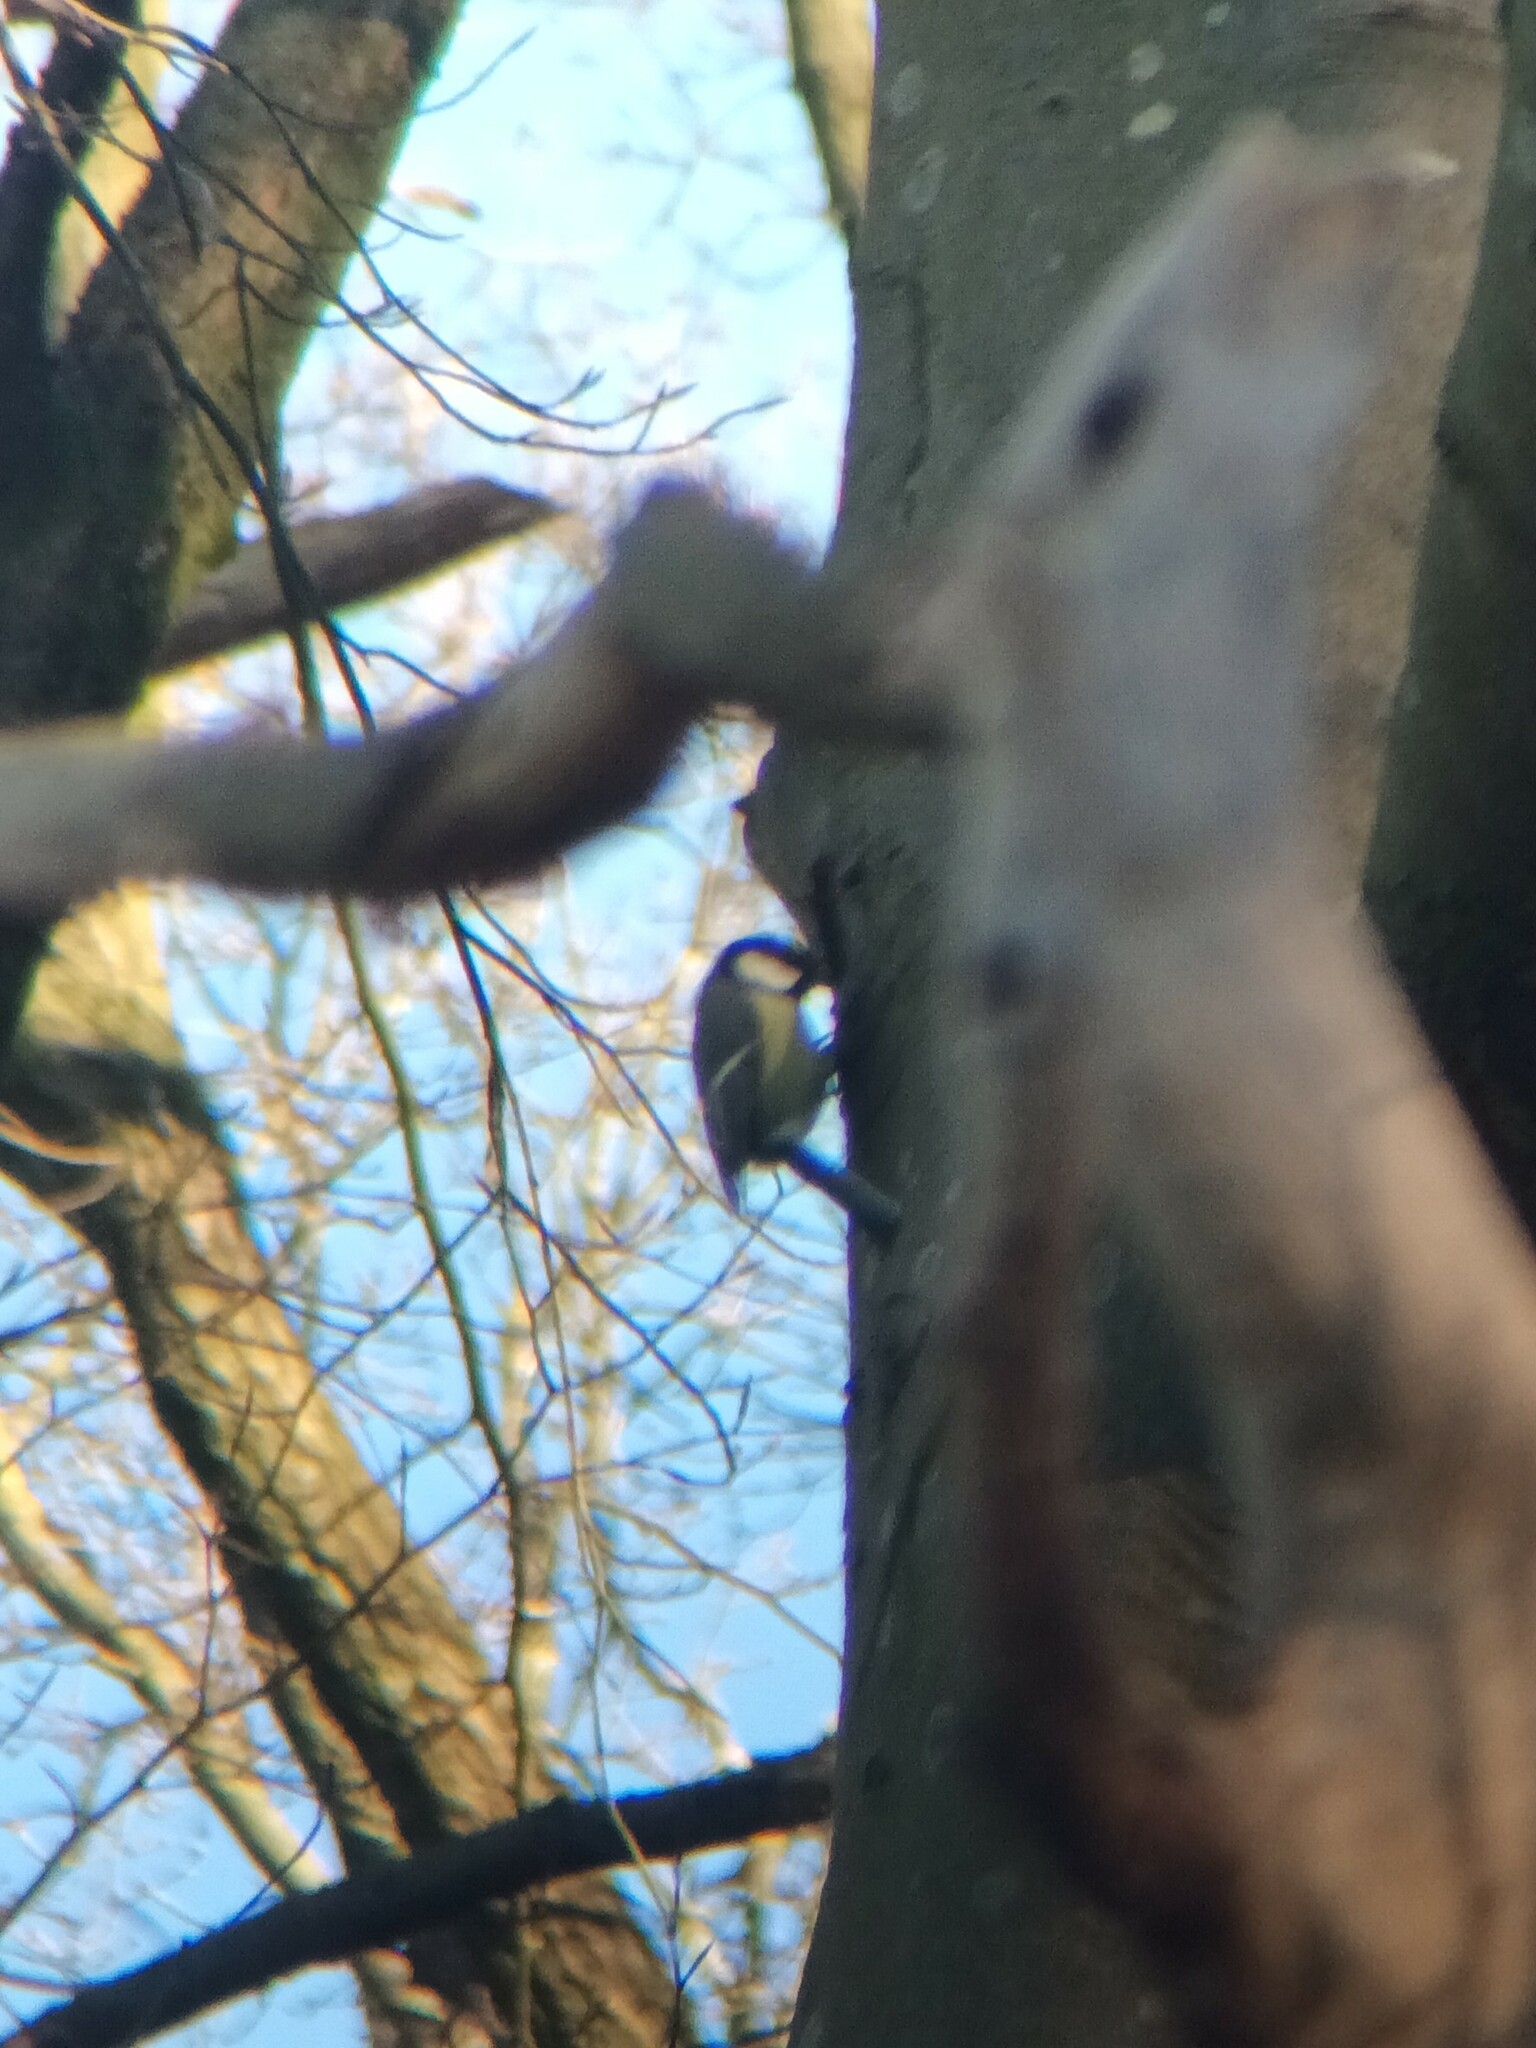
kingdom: Animalia
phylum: Chordata
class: Aves
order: Passeriformes
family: Paridae
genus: Parus
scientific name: Parus major
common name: Great tit
